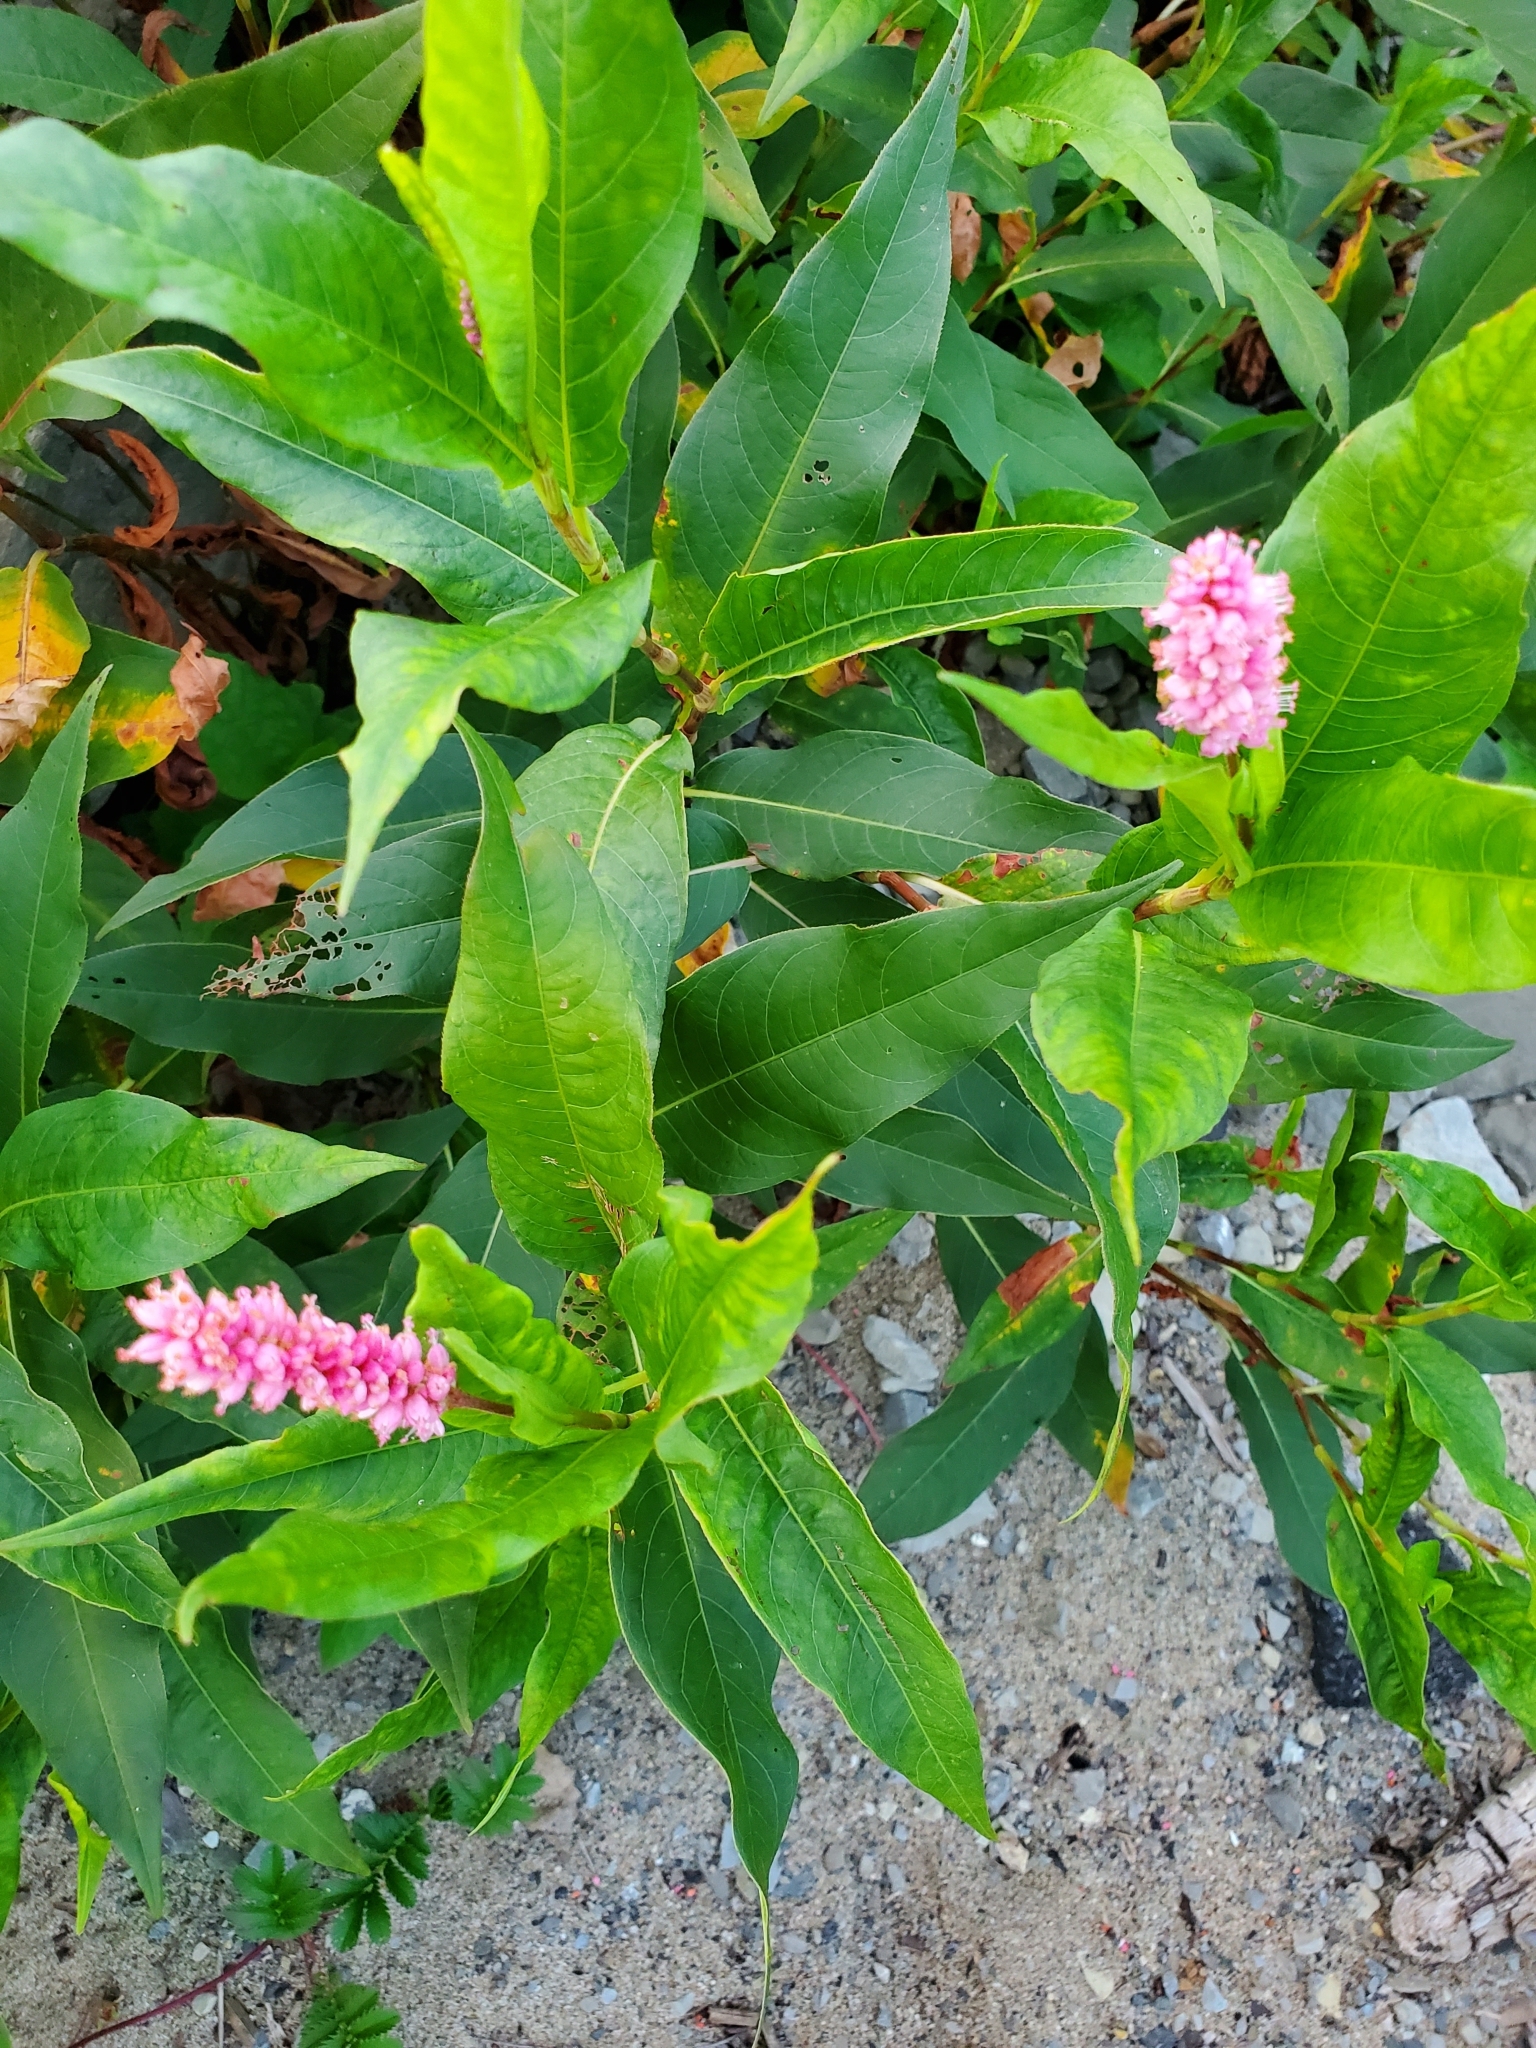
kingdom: Plantae
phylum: Tracheophyta
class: Magnoliopsida
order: Caryophyllales
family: Polygonaceae
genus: Persicaria
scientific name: Persicaria amphibia
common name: Amphibious bistort
